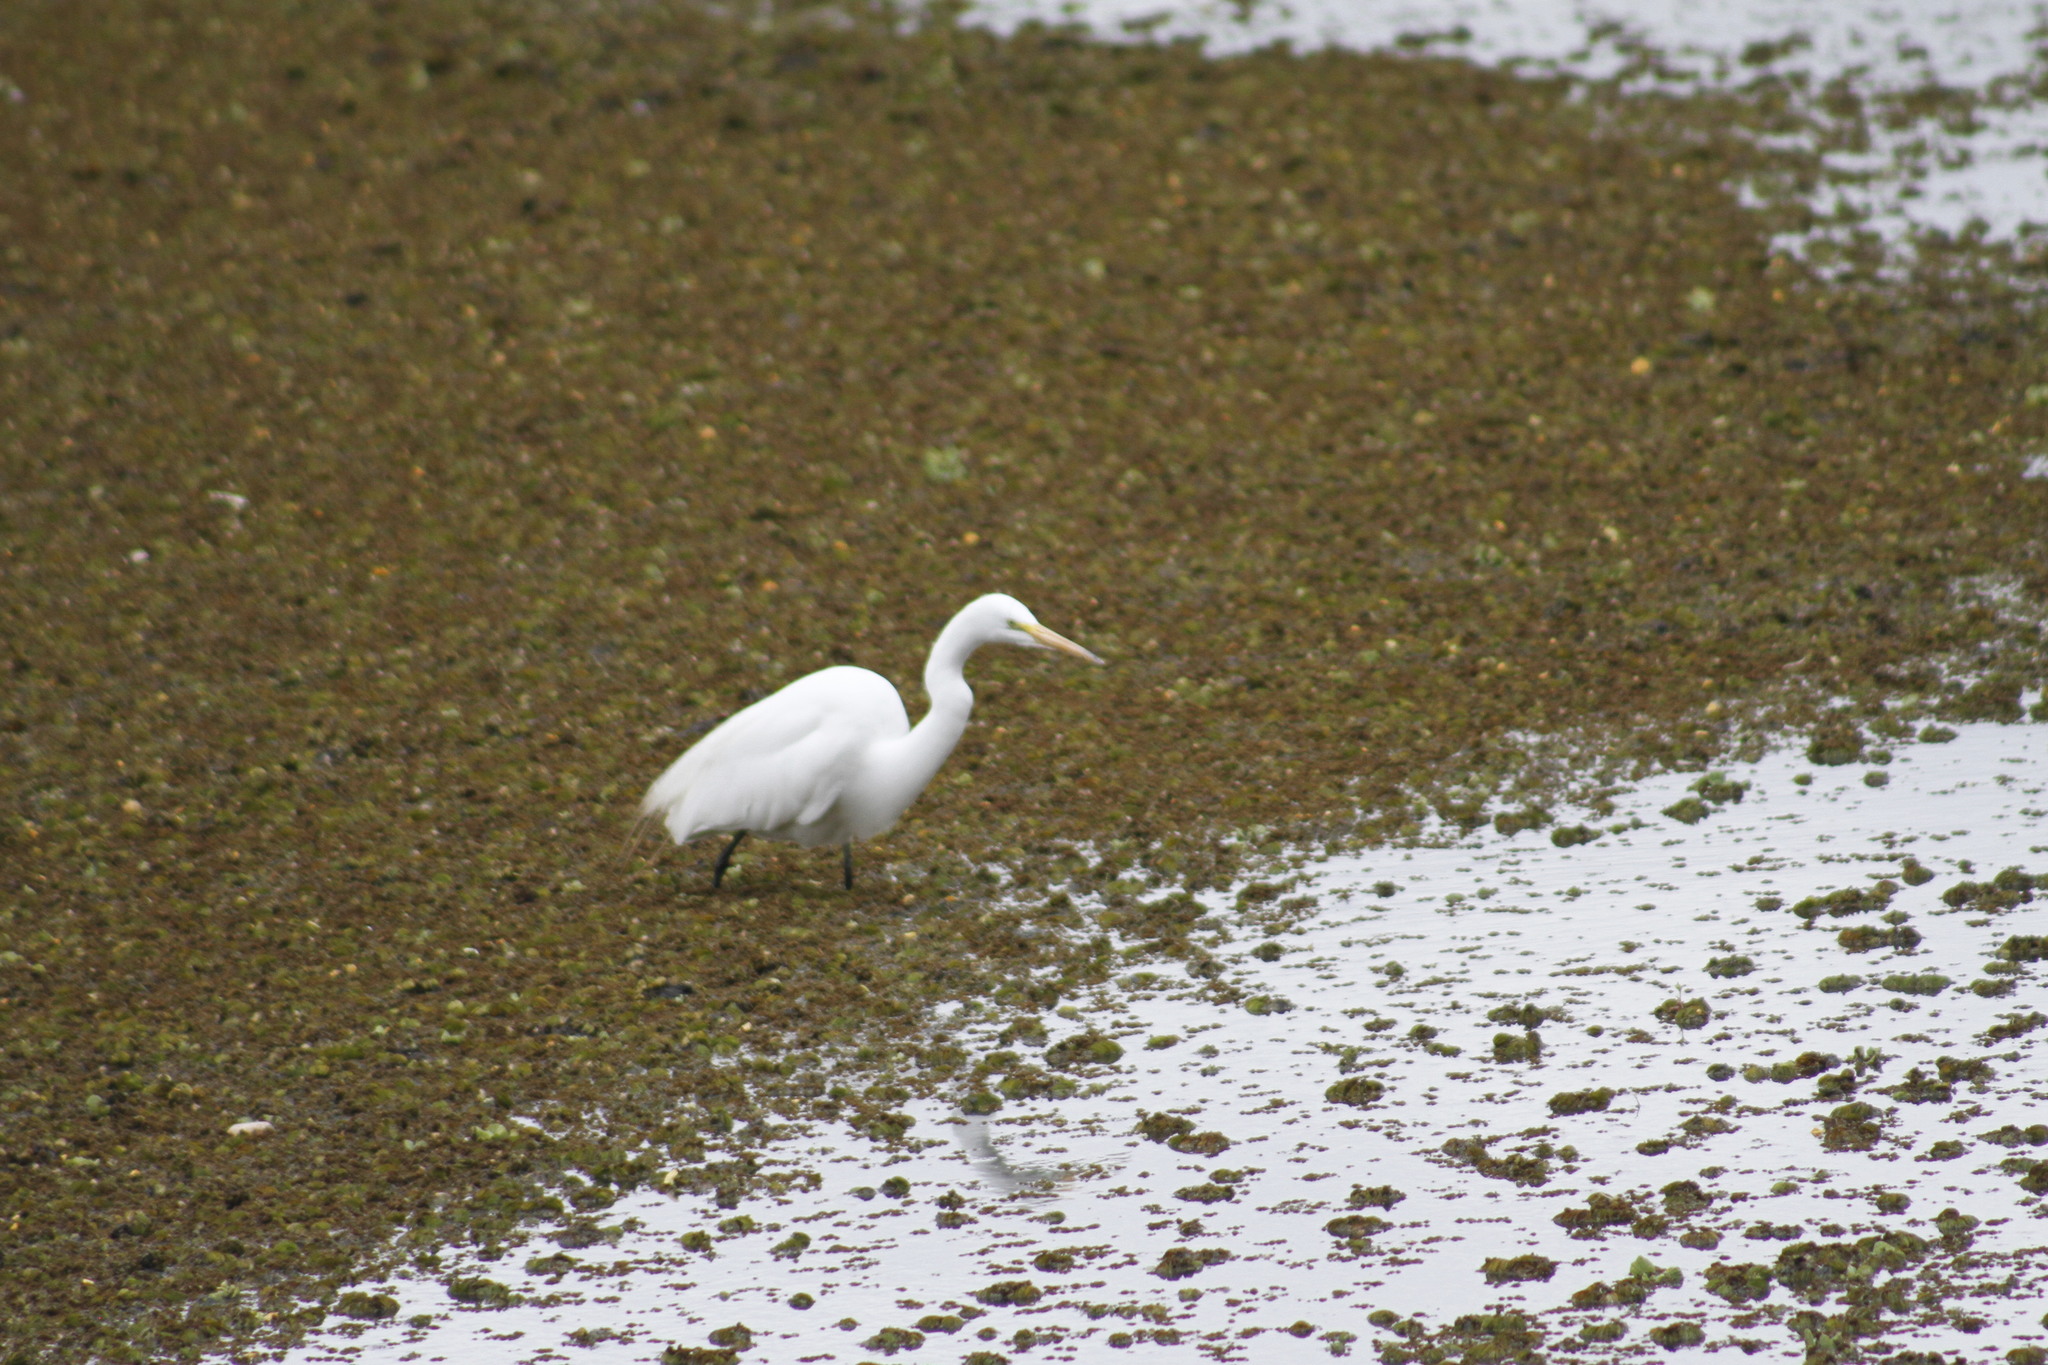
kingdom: Animalia
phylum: Chordata
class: Aves
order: Pelecaniformes
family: Ardeidae
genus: Ardea
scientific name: Ardea alba
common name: Great egret
